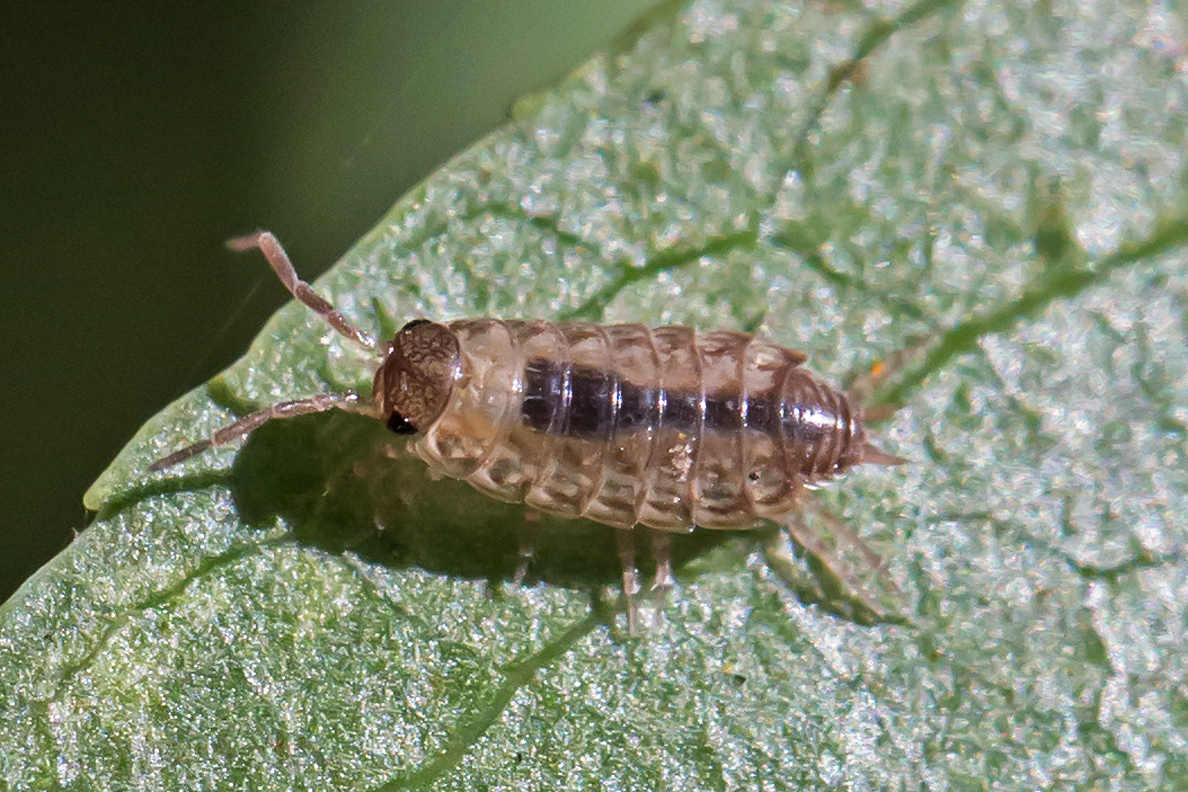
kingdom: Animalia
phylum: Arthropoda
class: Malacostraca
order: Isopoda
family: Philosciidae
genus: Philoscia
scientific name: Philoscia muscorum
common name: Common striped woodlouse
